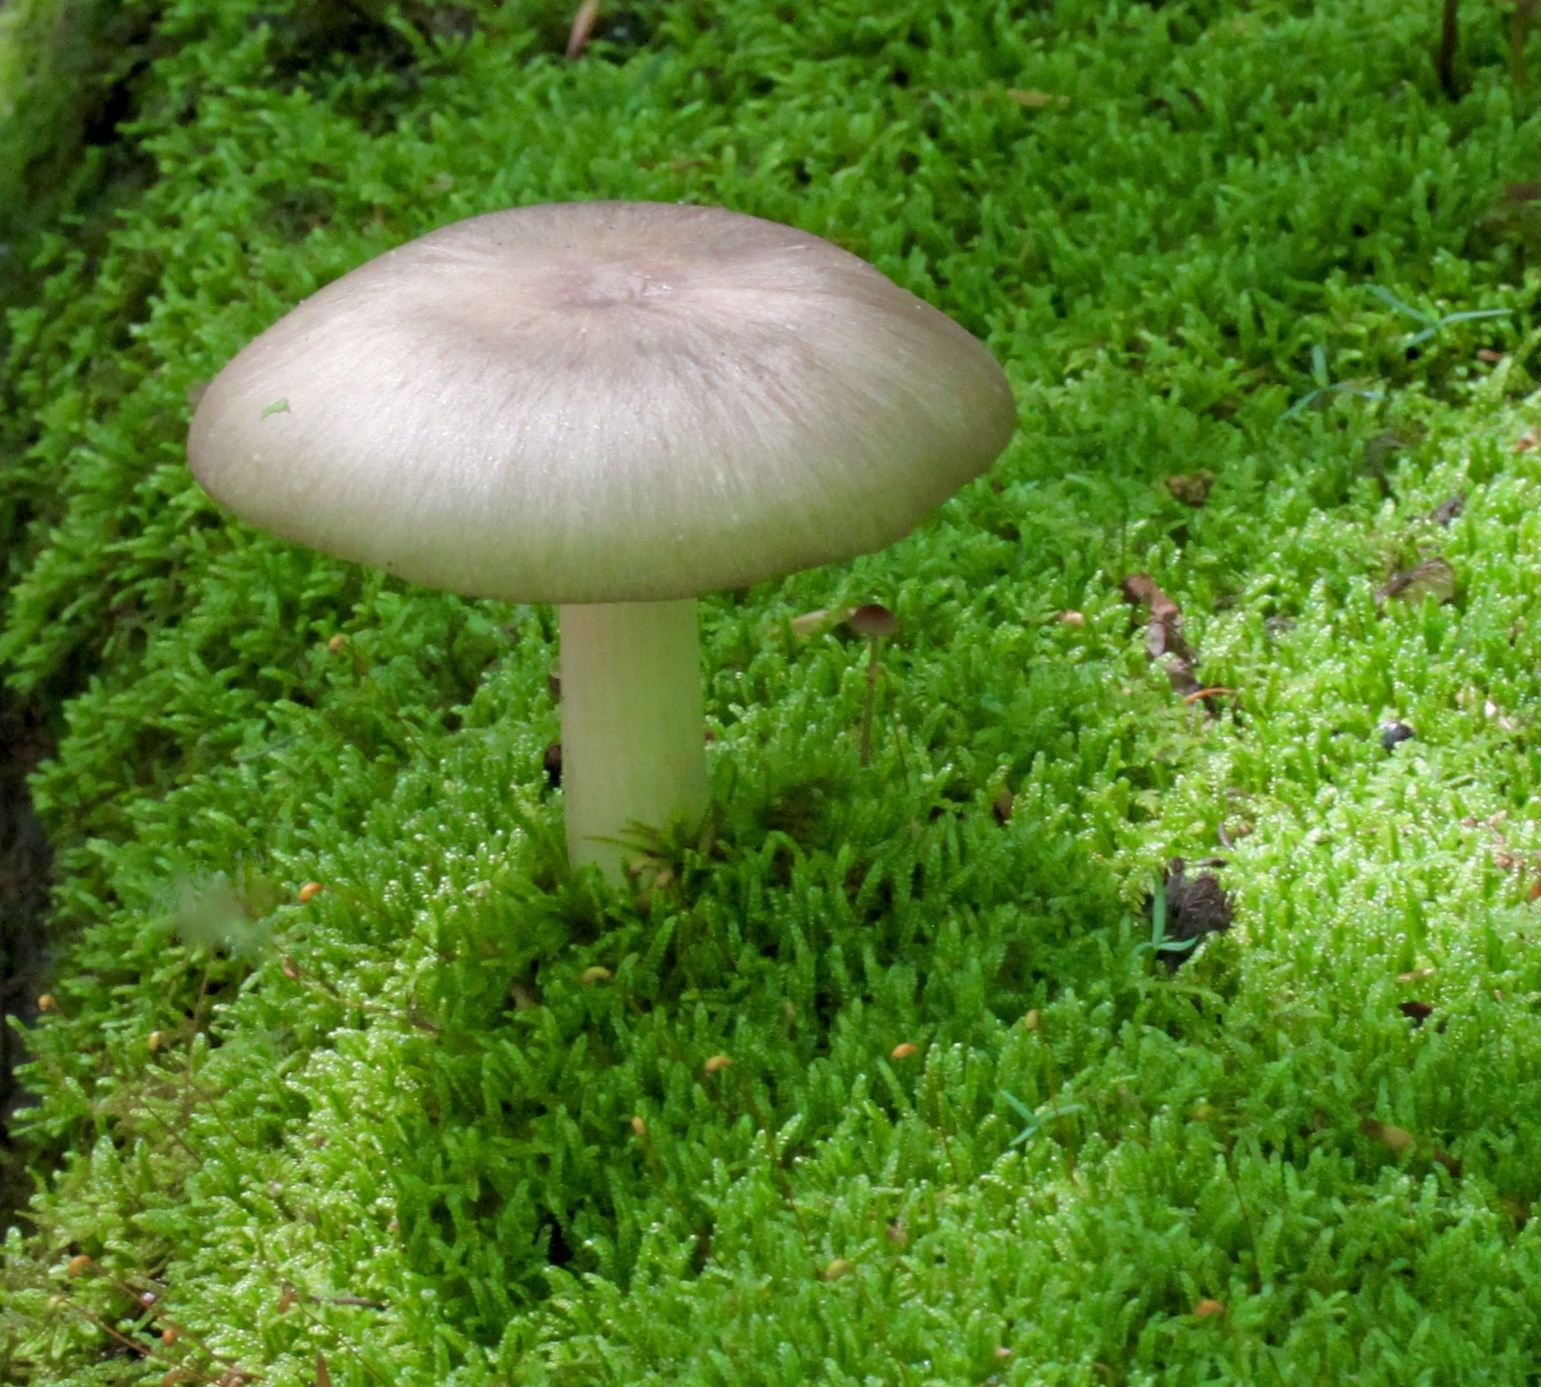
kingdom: Fungi
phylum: Basidiomycota
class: Agaricomycetes
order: Agaricales
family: Tricholomataceae
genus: Megacollybia
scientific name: Megacollybia rodmanii
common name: Eastern american platterful mushroom
